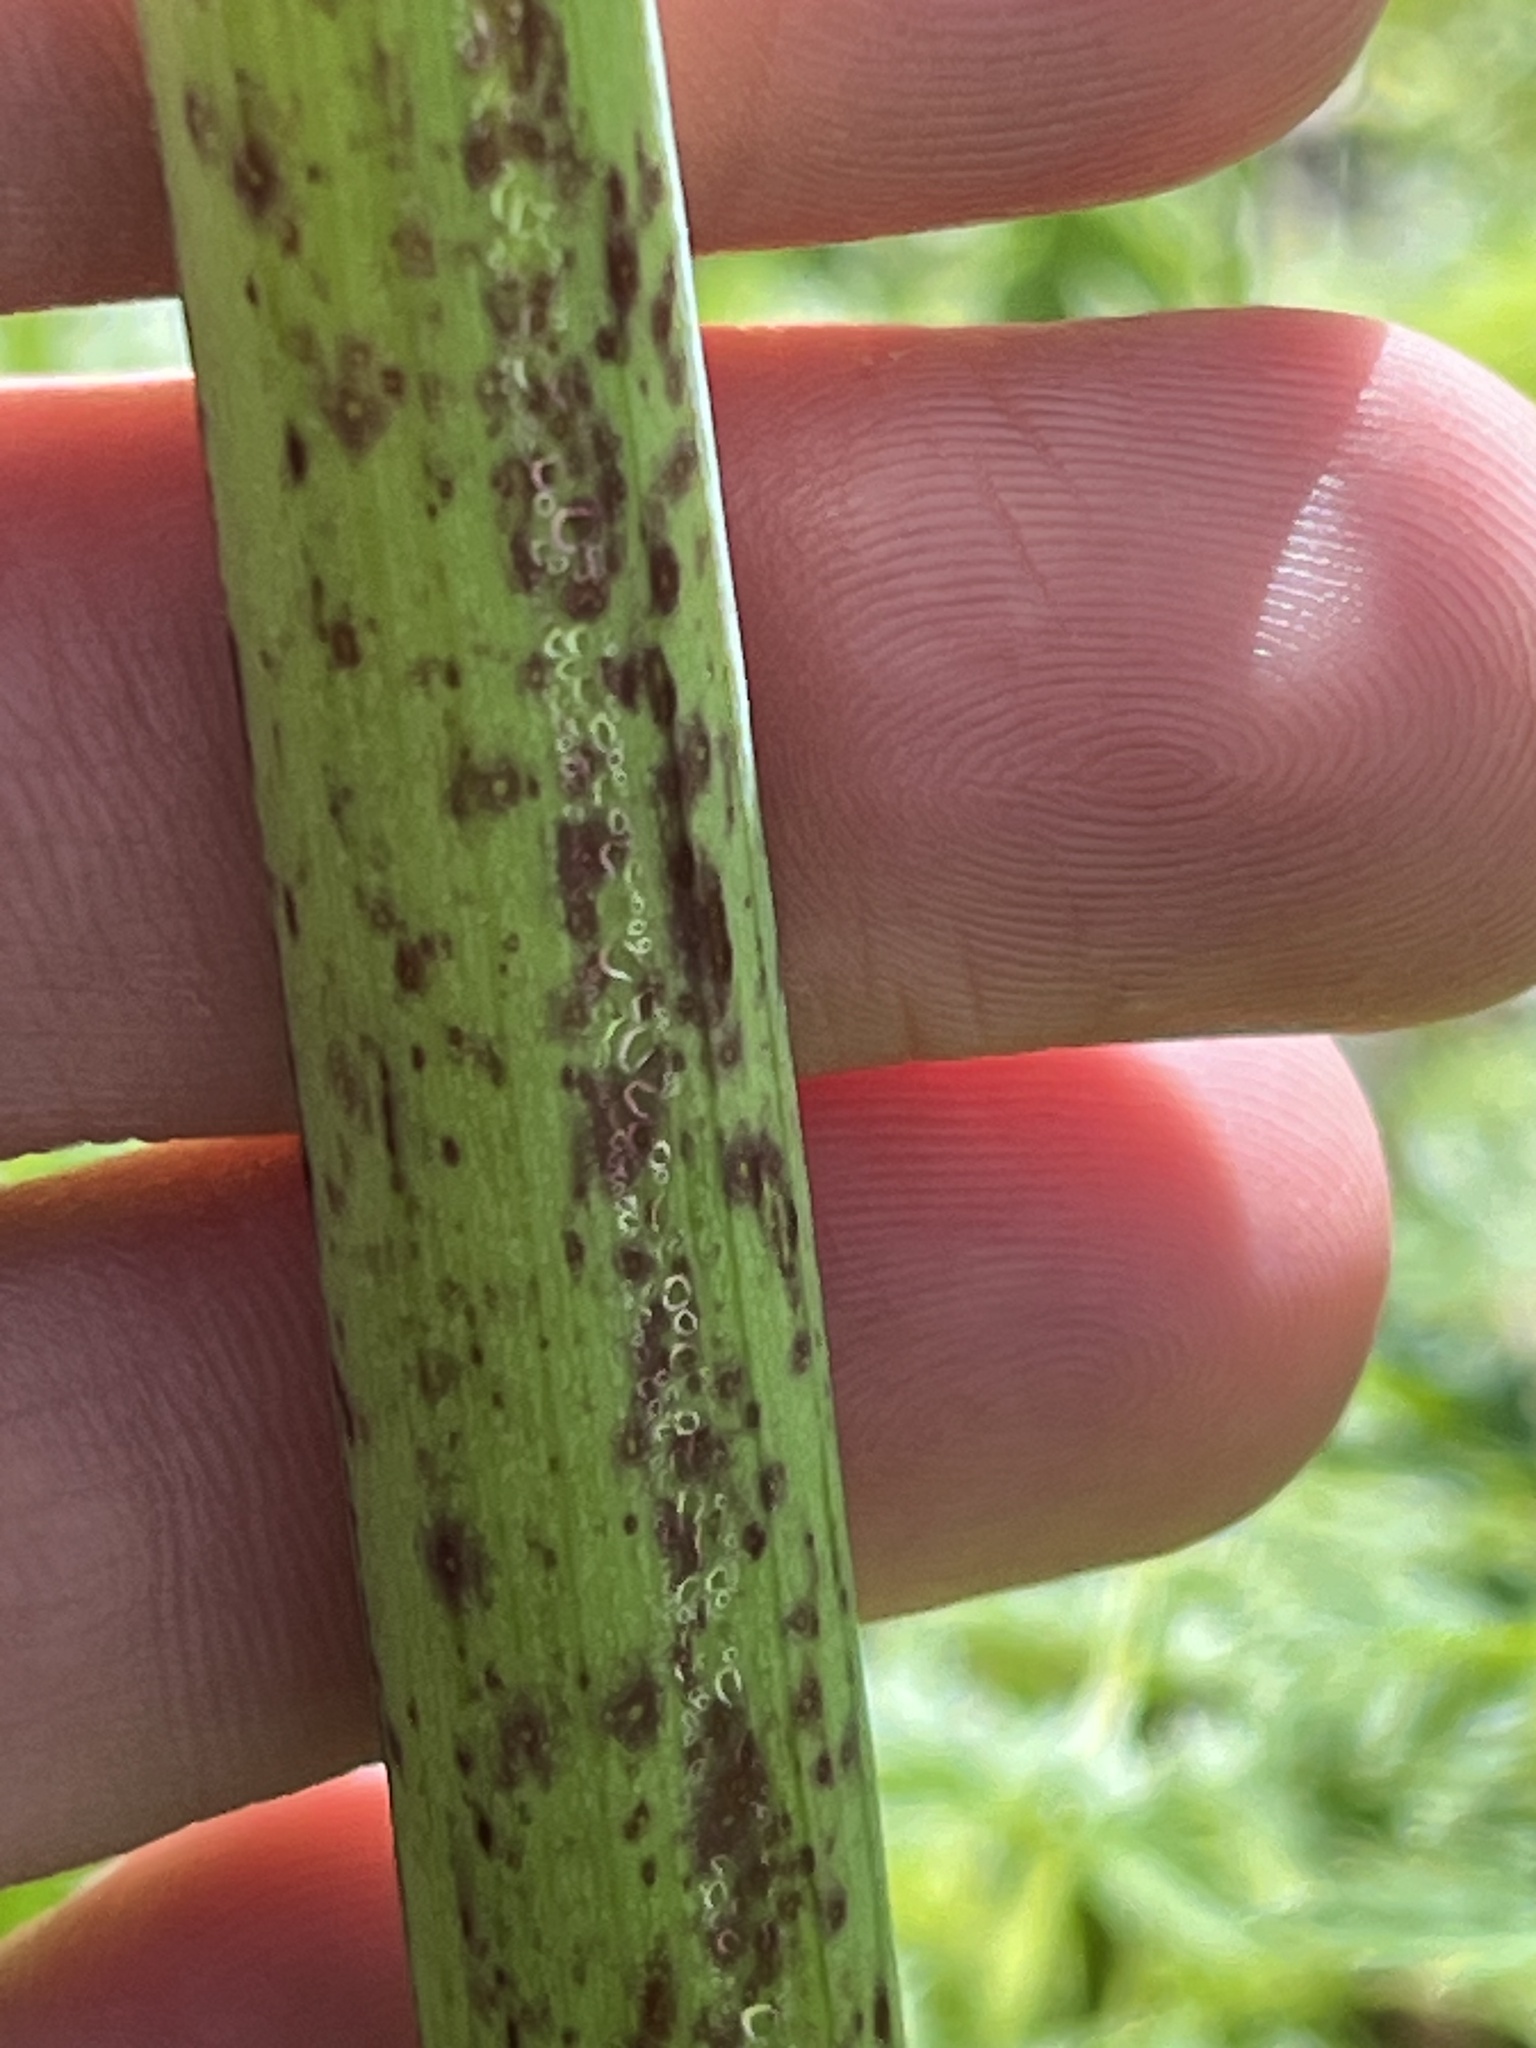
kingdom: Plantae
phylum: Tracheophyta
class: Magnoliopsida
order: Apiales
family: Apiaceae
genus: Conium
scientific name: Conium maculatum
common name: Hemlock
